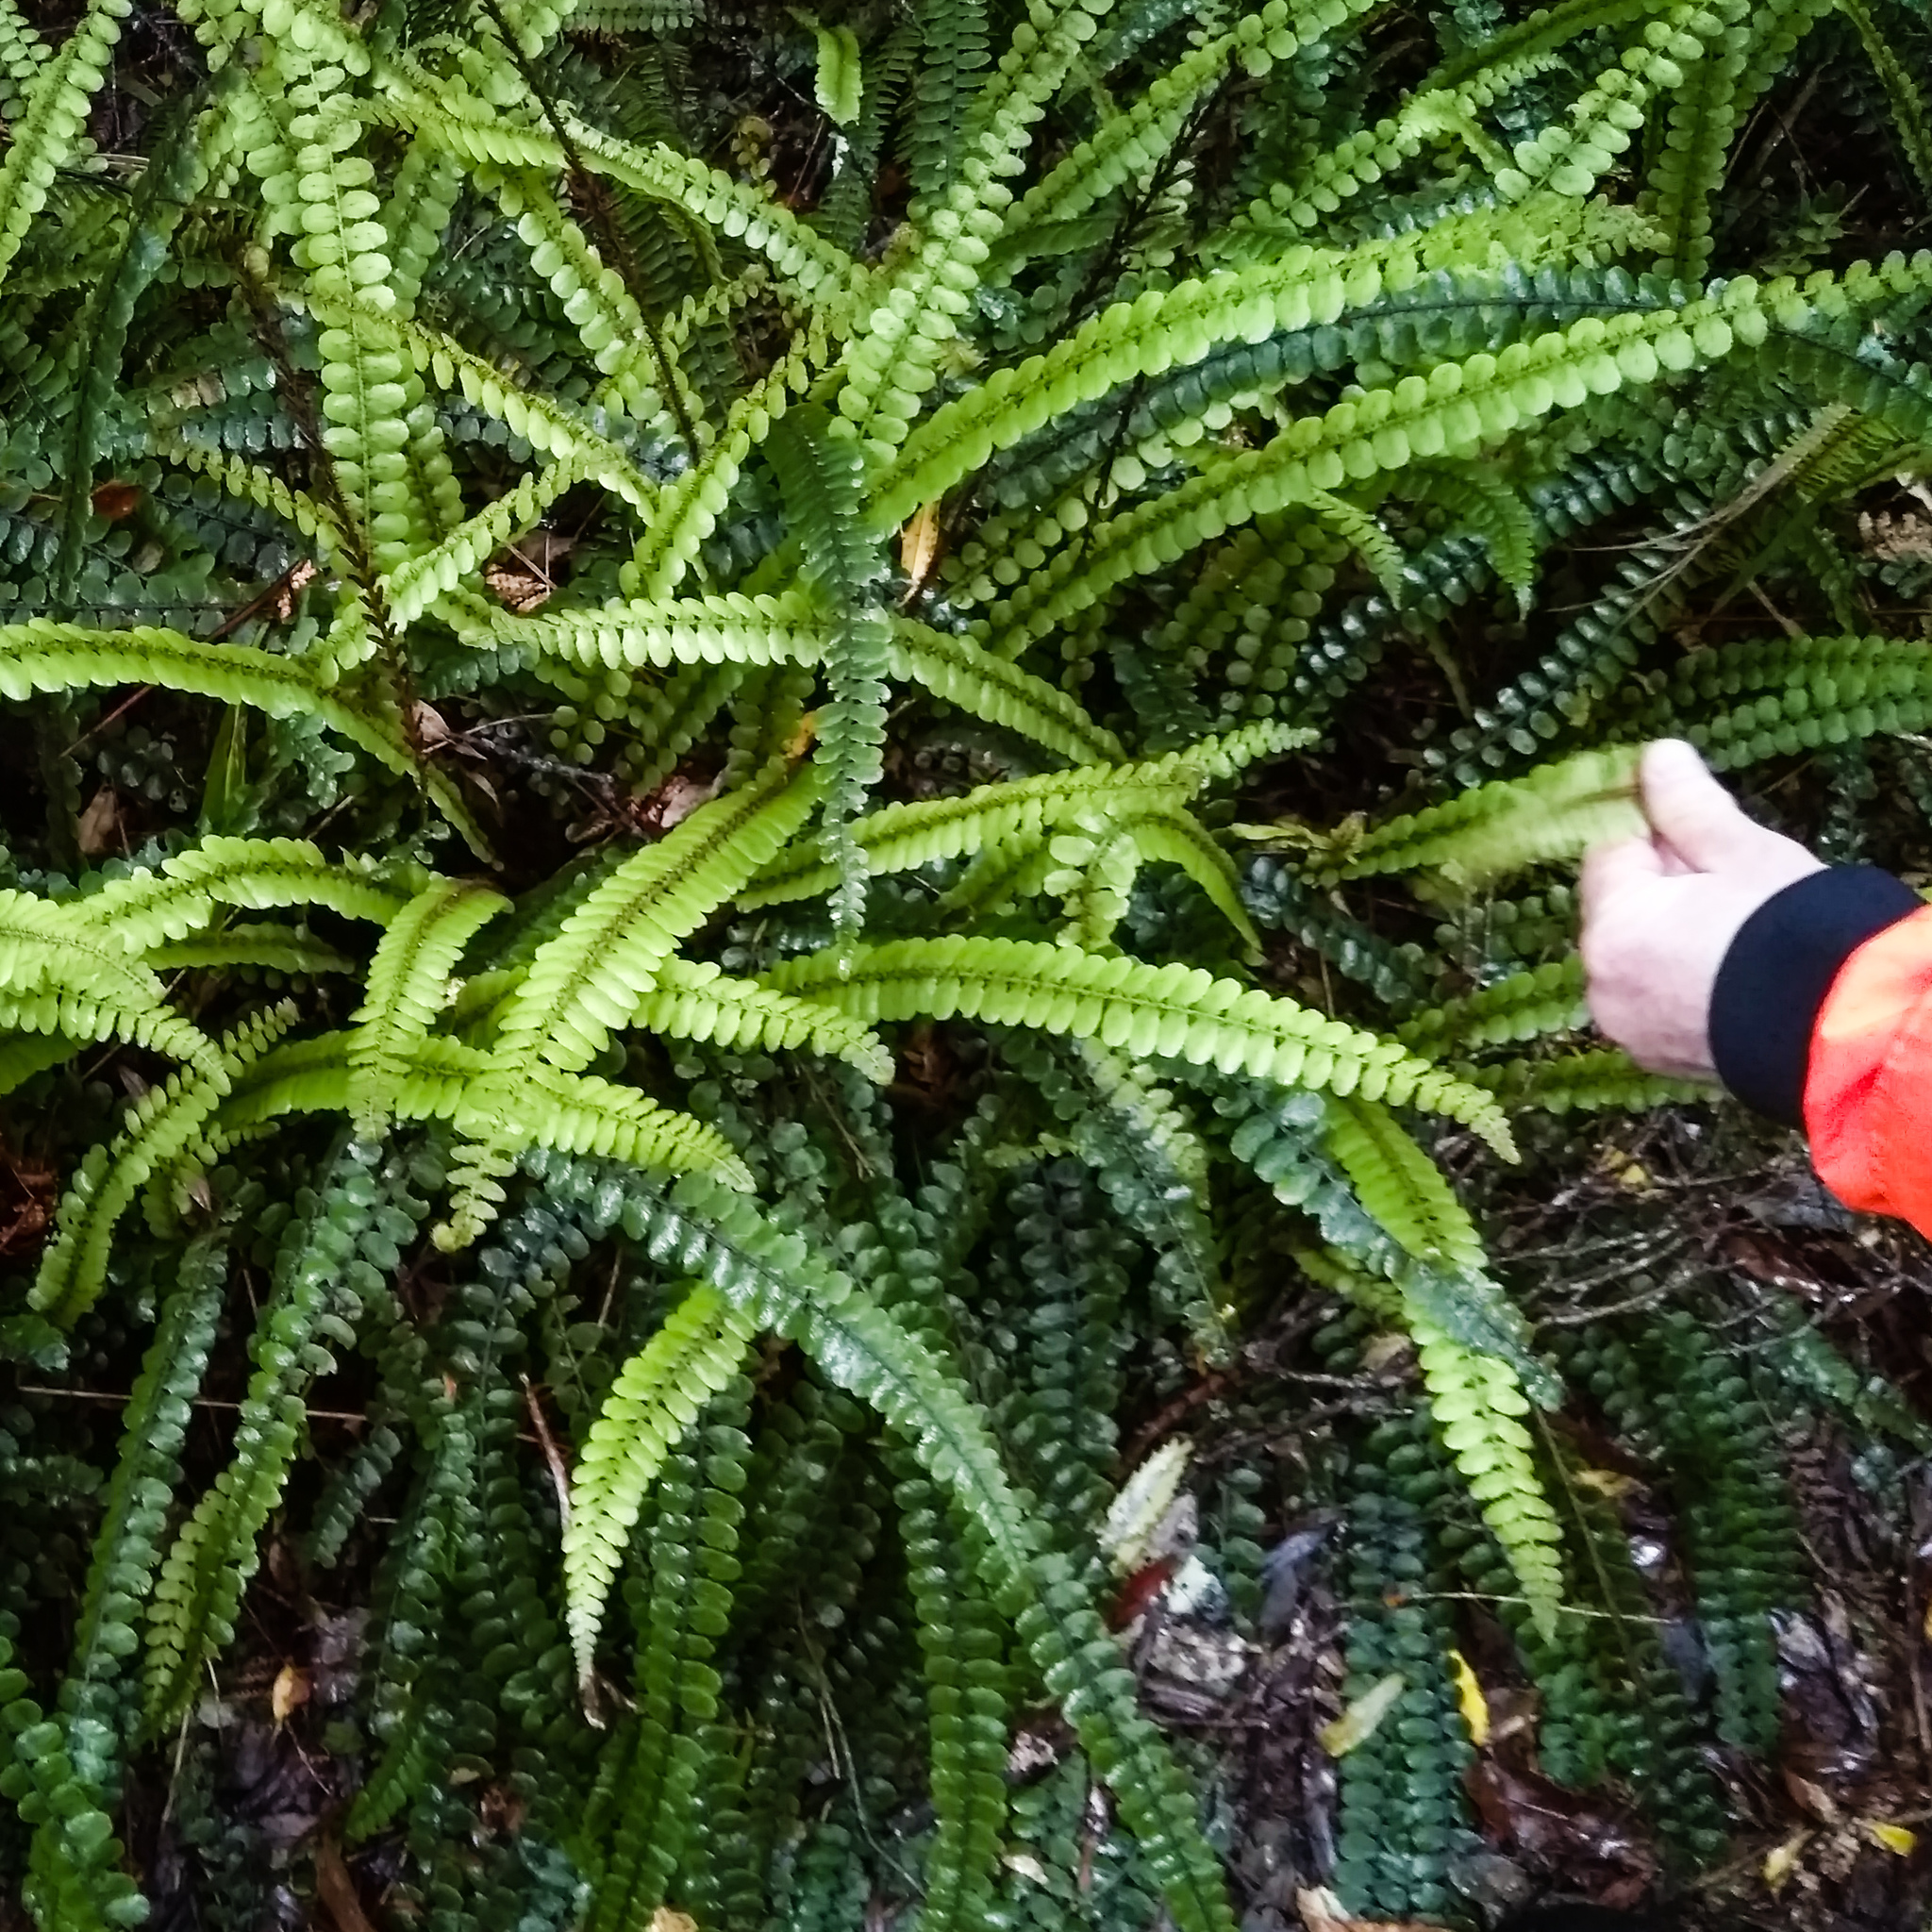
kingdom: Plantae
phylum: Tracheophyta
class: Polypodiopsida
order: Polypodiales
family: Blechnaceae
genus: Cranfillia
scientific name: Cranfillia fluviatilis
